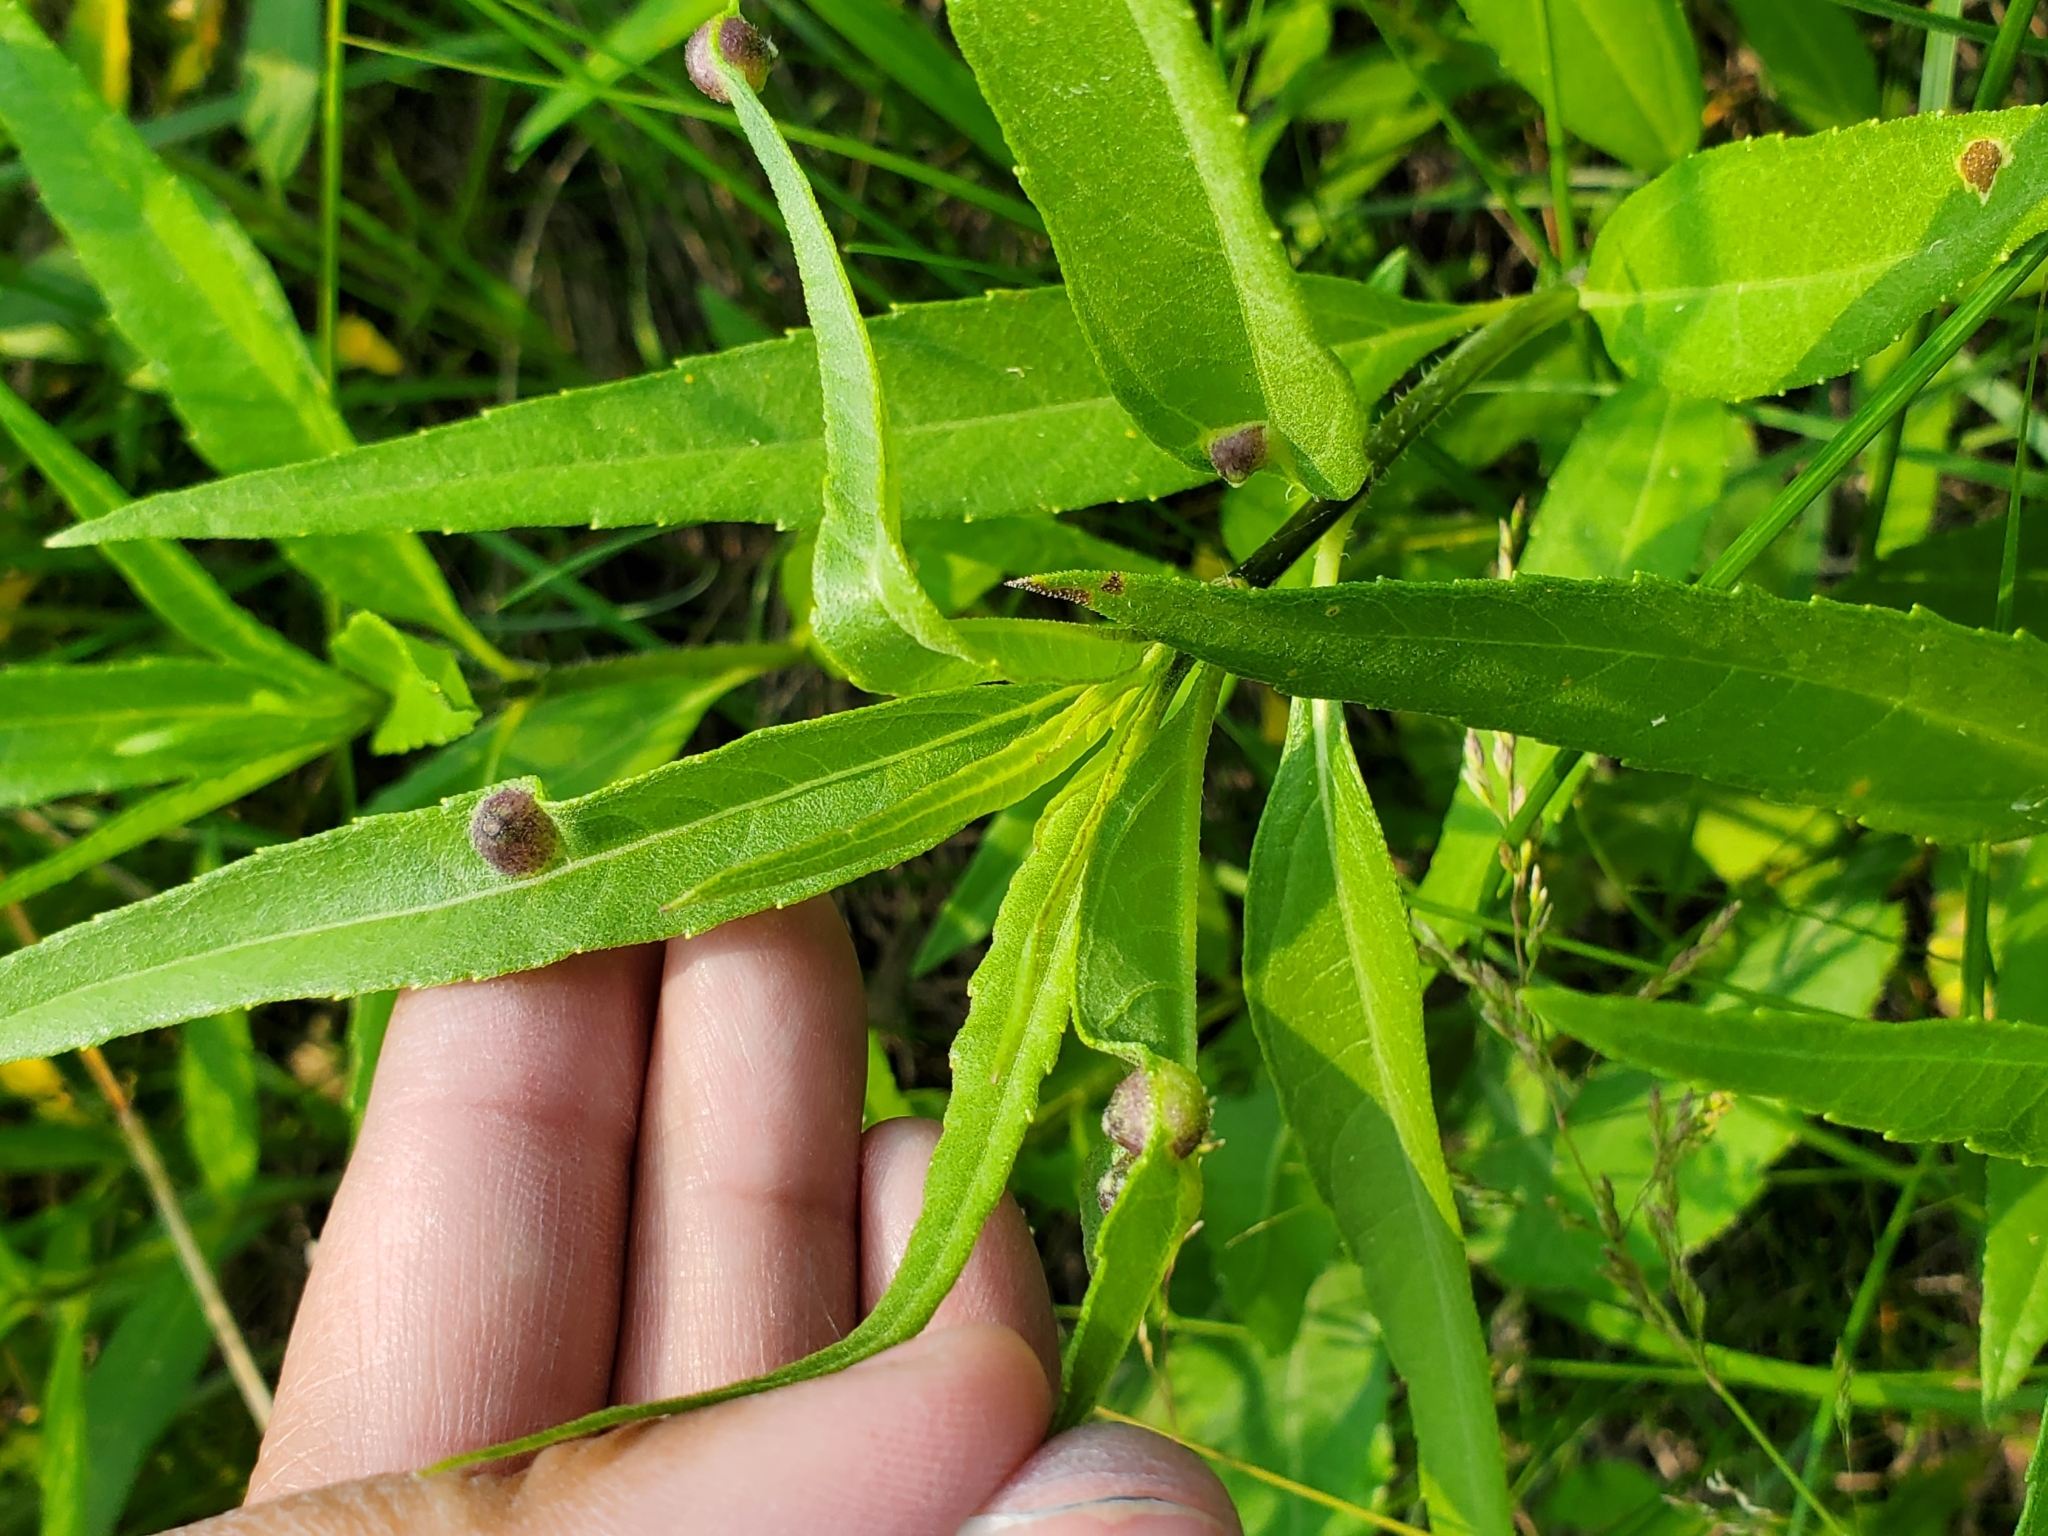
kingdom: Animalia
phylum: Arthropoda
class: Insecta
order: Diptera
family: Cecidomyiidae
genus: Pilodiplosis
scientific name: Pilodiplosis helianthibulla
